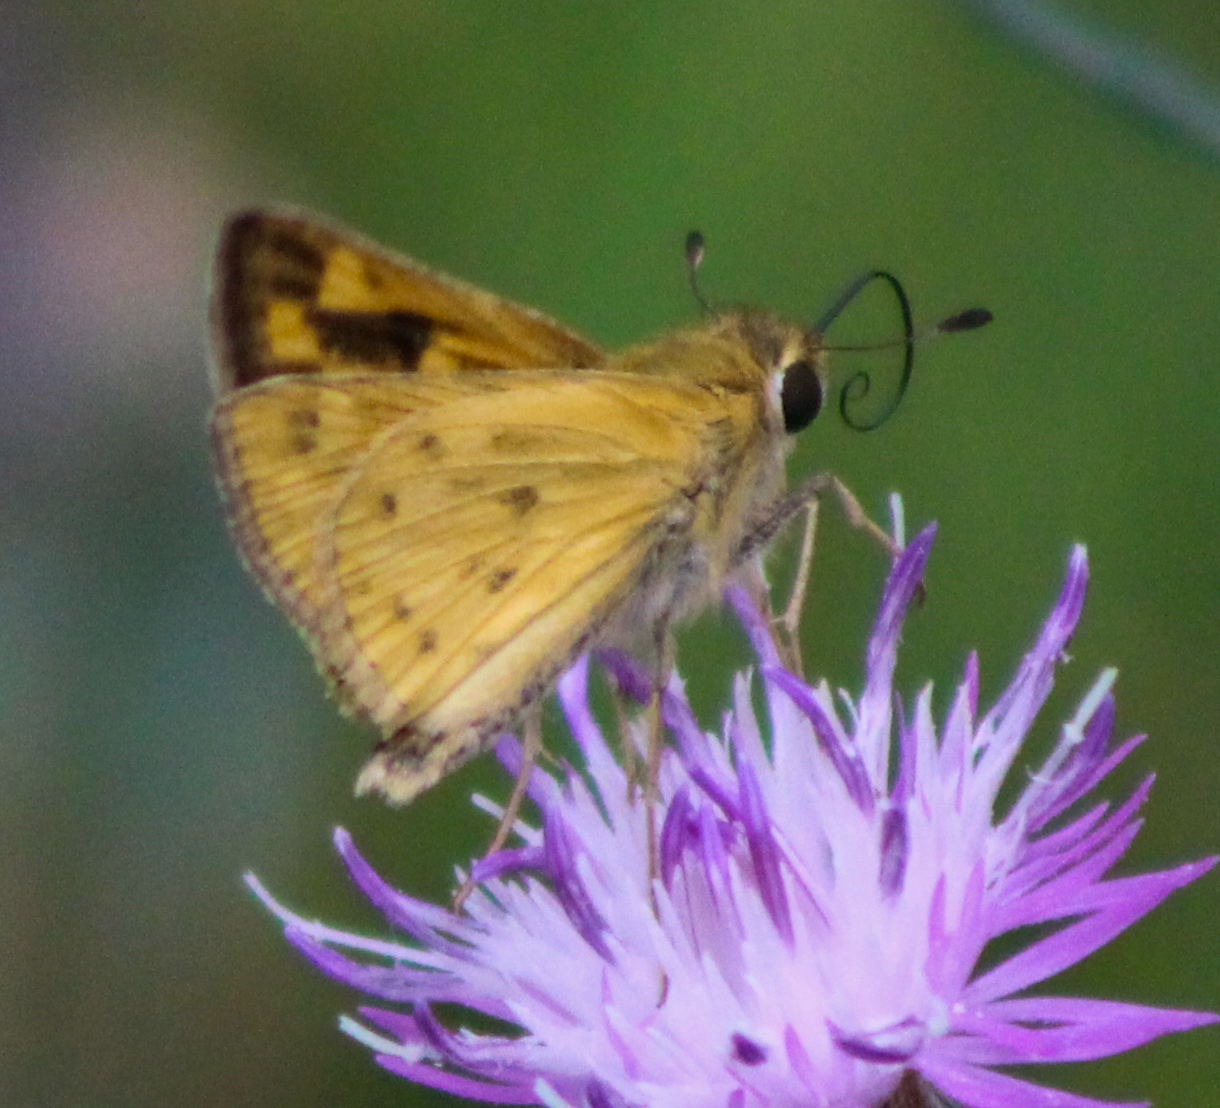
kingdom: Animalia
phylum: Arthropoda
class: Insecta
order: Lepidoptera
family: Hesperiidae
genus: Hylephila
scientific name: Hylephila phyleus
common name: Fiery skipper
